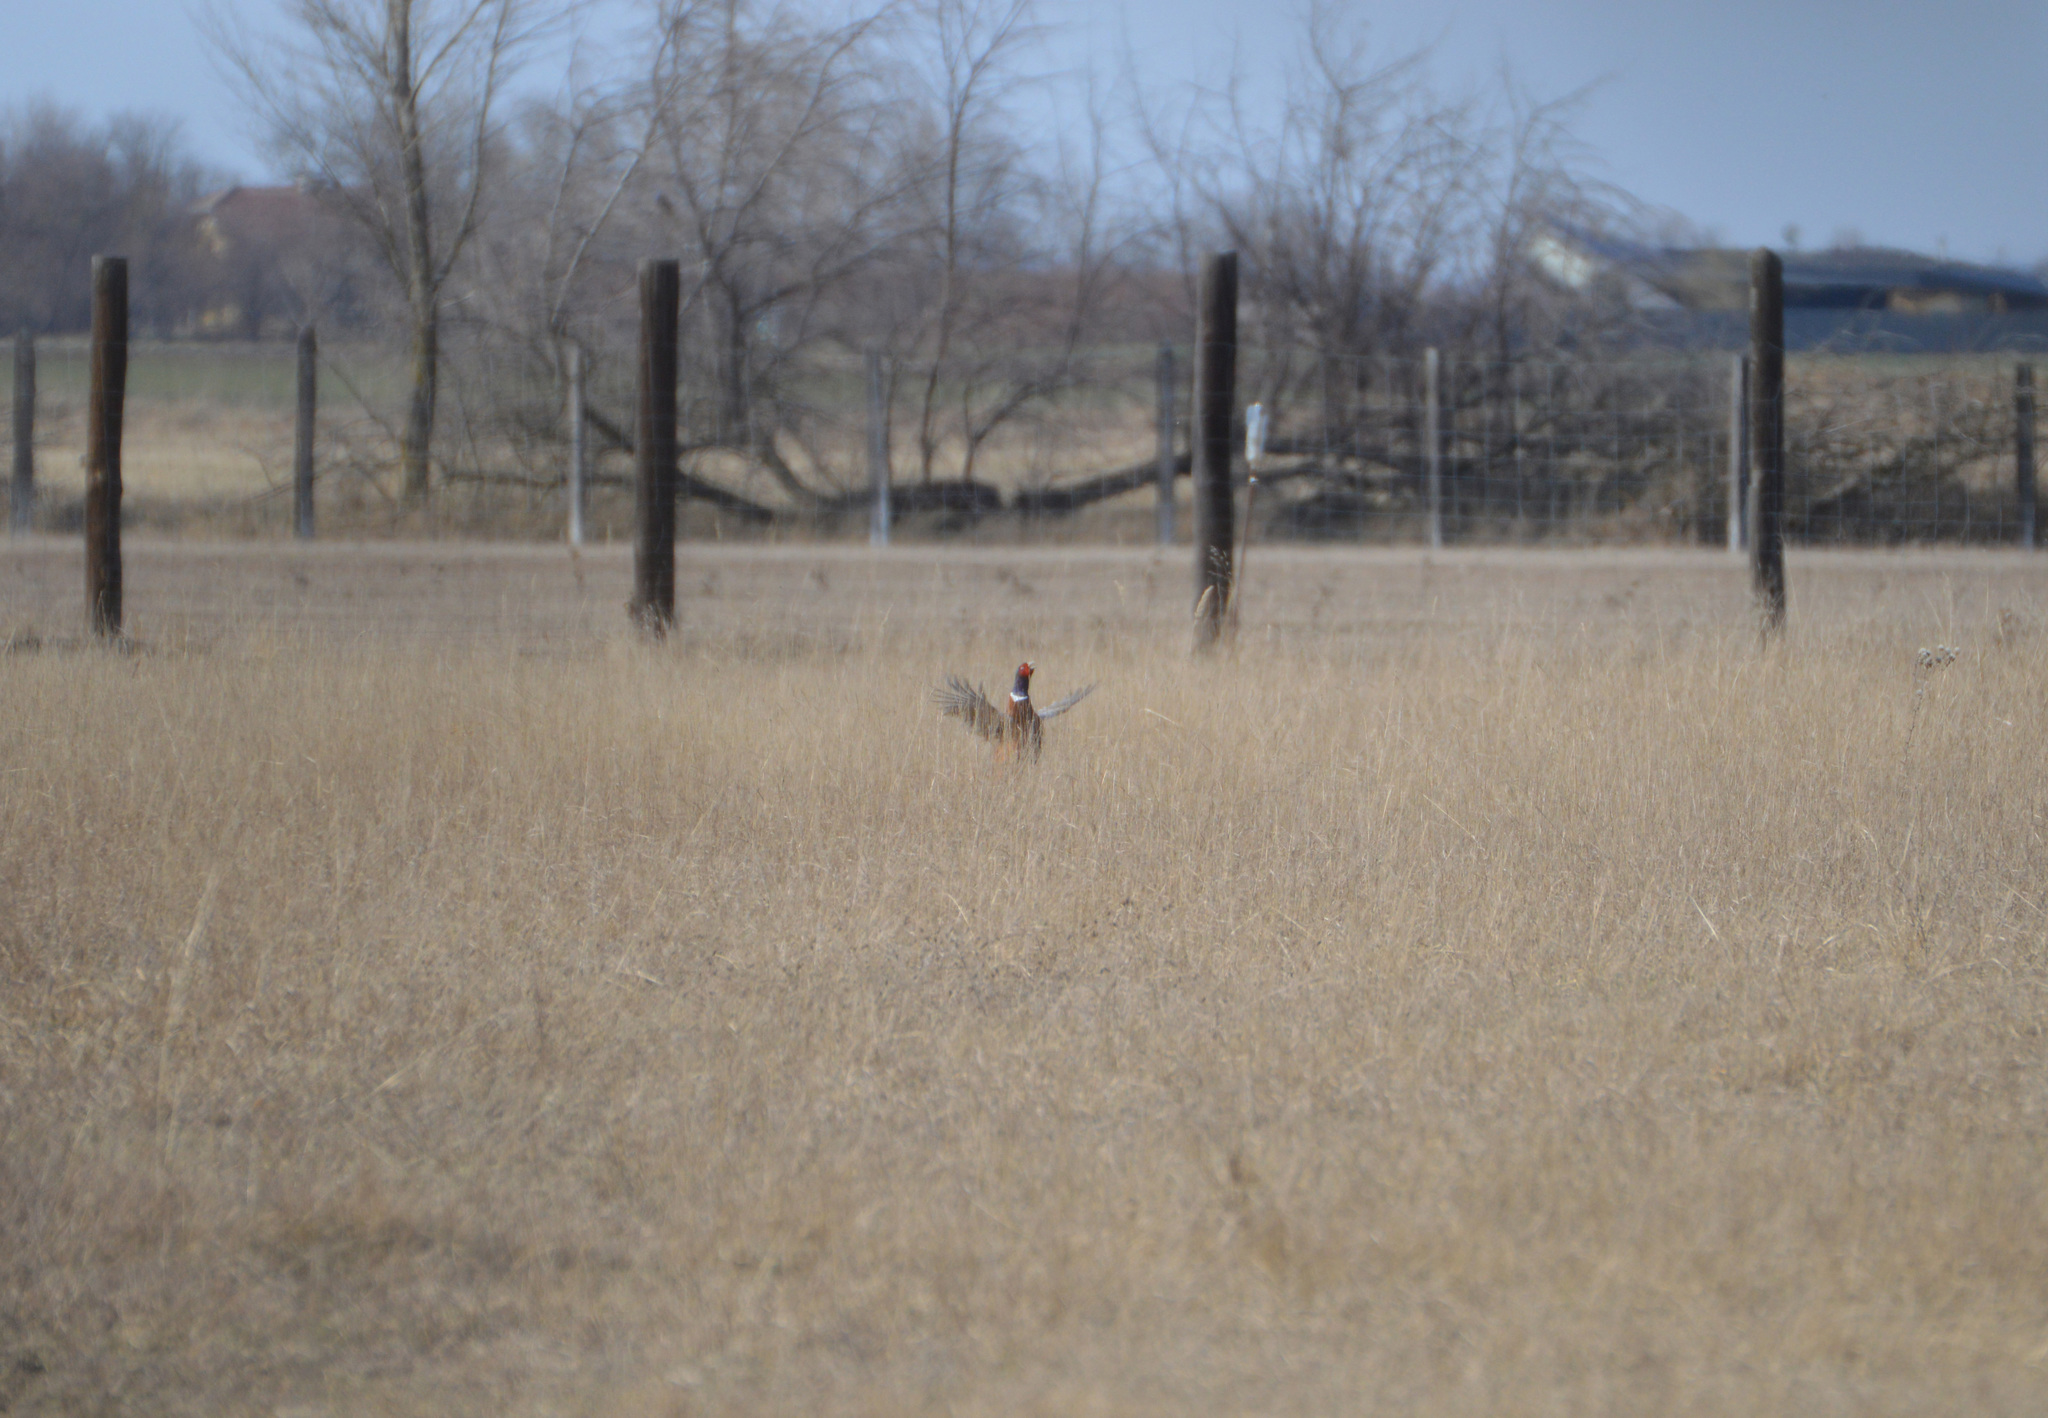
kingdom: Animalia
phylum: Chordata
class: Aves
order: Galliformes
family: Phasianidae
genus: Phasianus
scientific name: Phasianus colchicus
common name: Common pheasant
